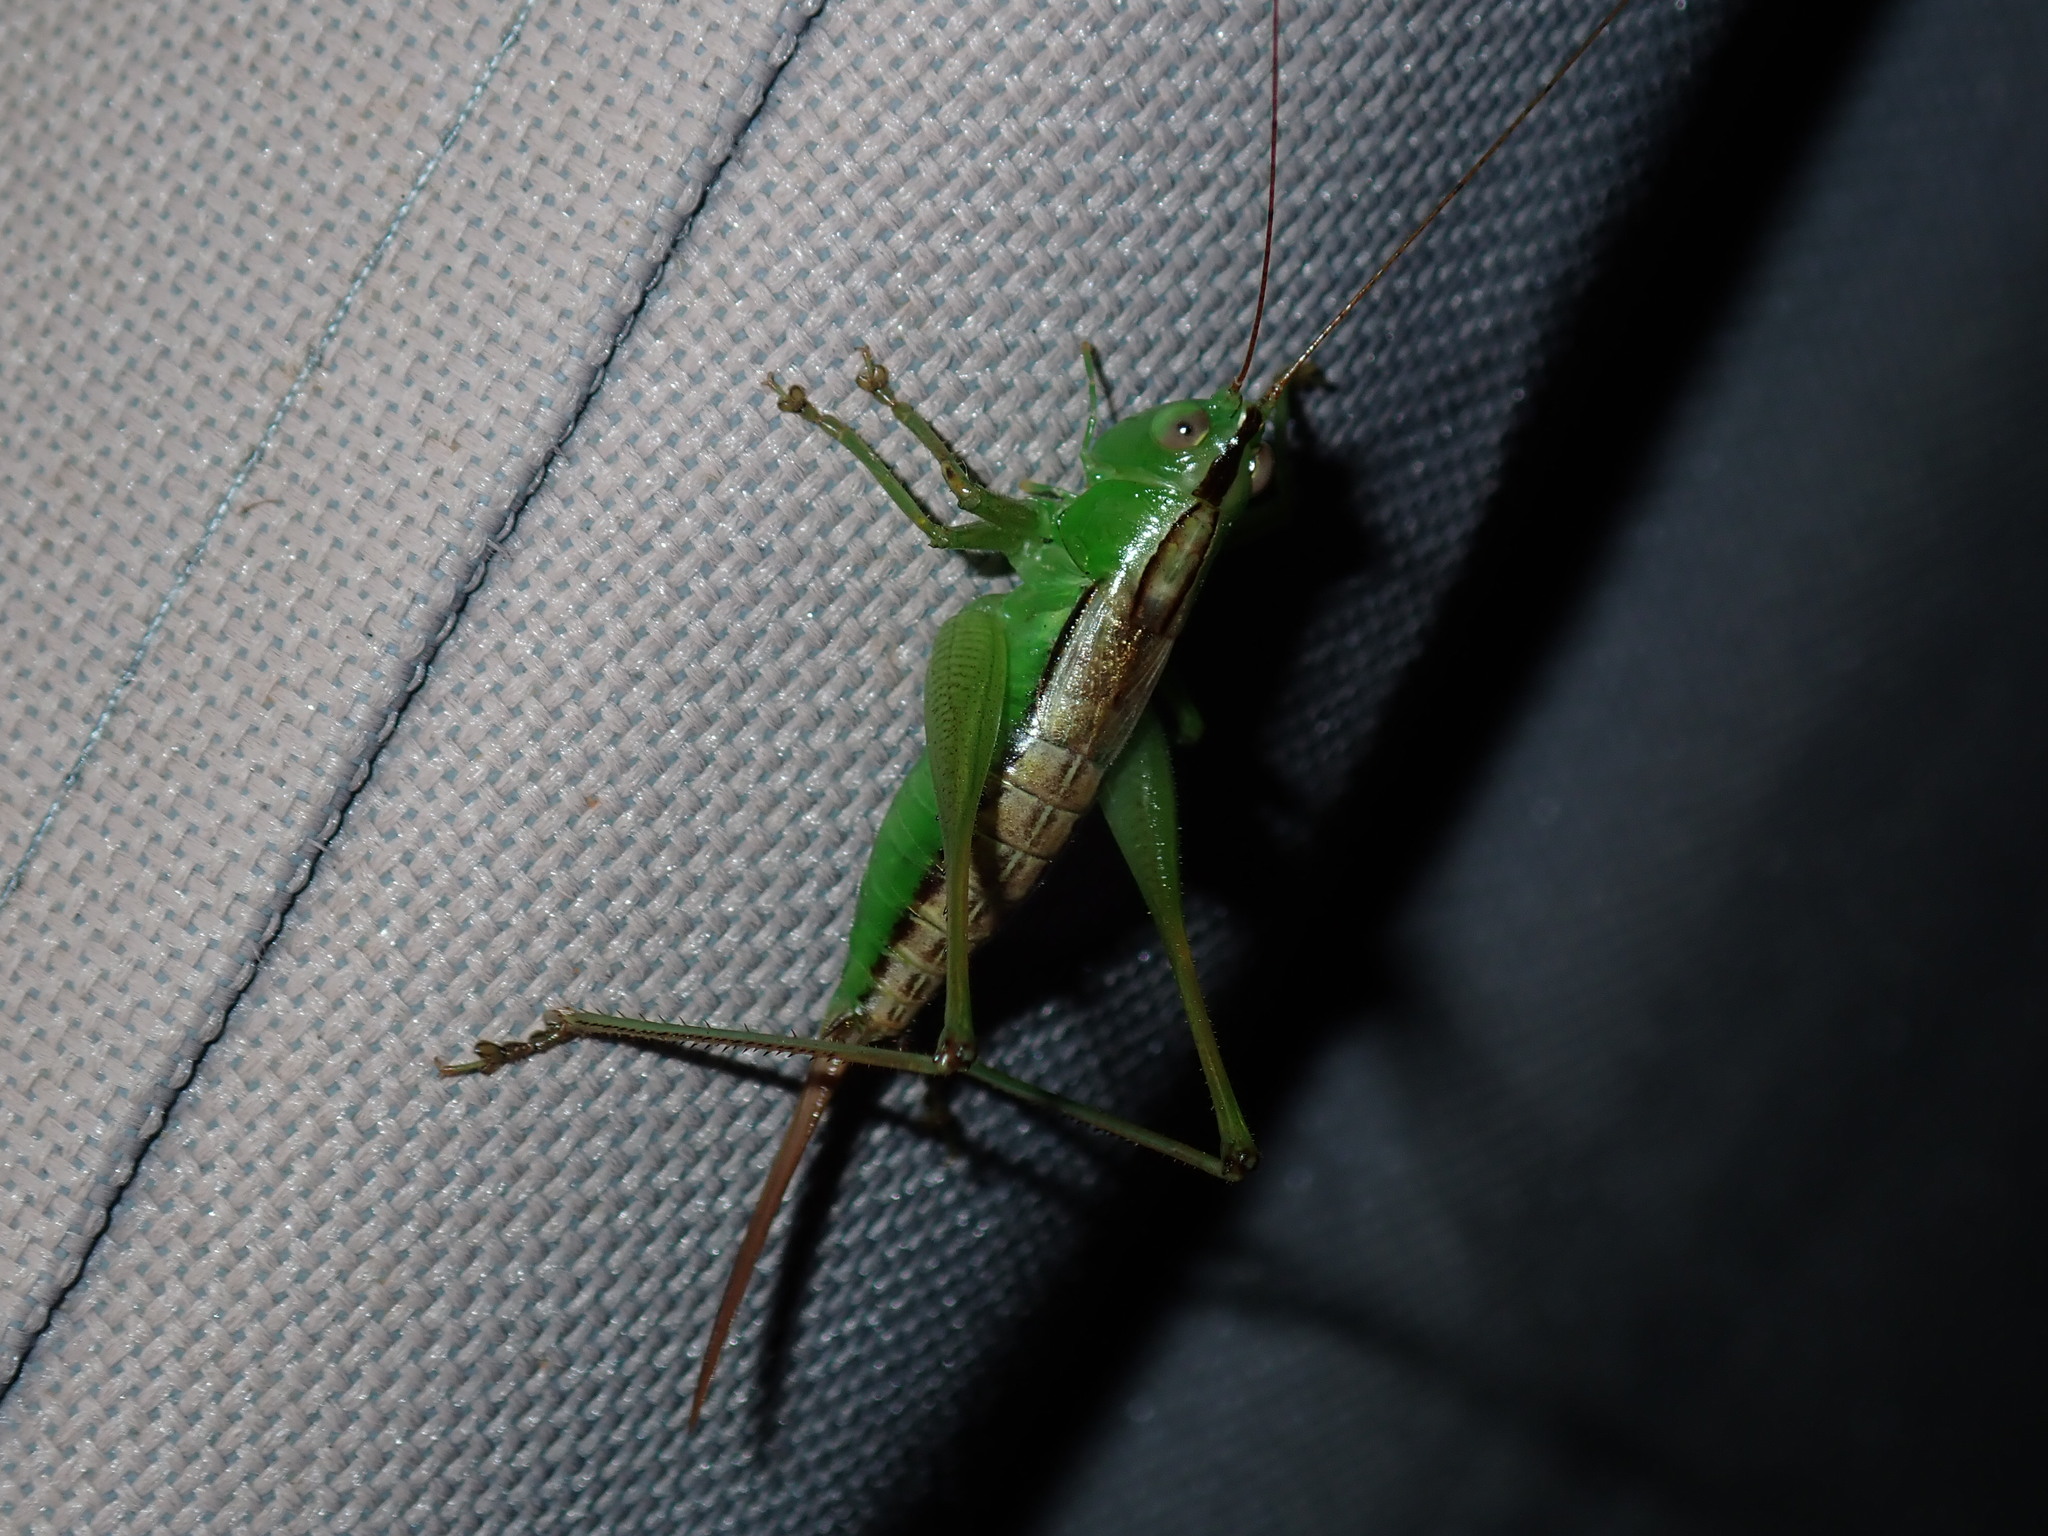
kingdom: Animalia
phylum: Arthropoda
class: Insecta
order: Orthoptera
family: Tettigoniidae
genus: Conocephalus
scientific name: Conocephalus semivittatus
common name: Blackish meadow katydid
